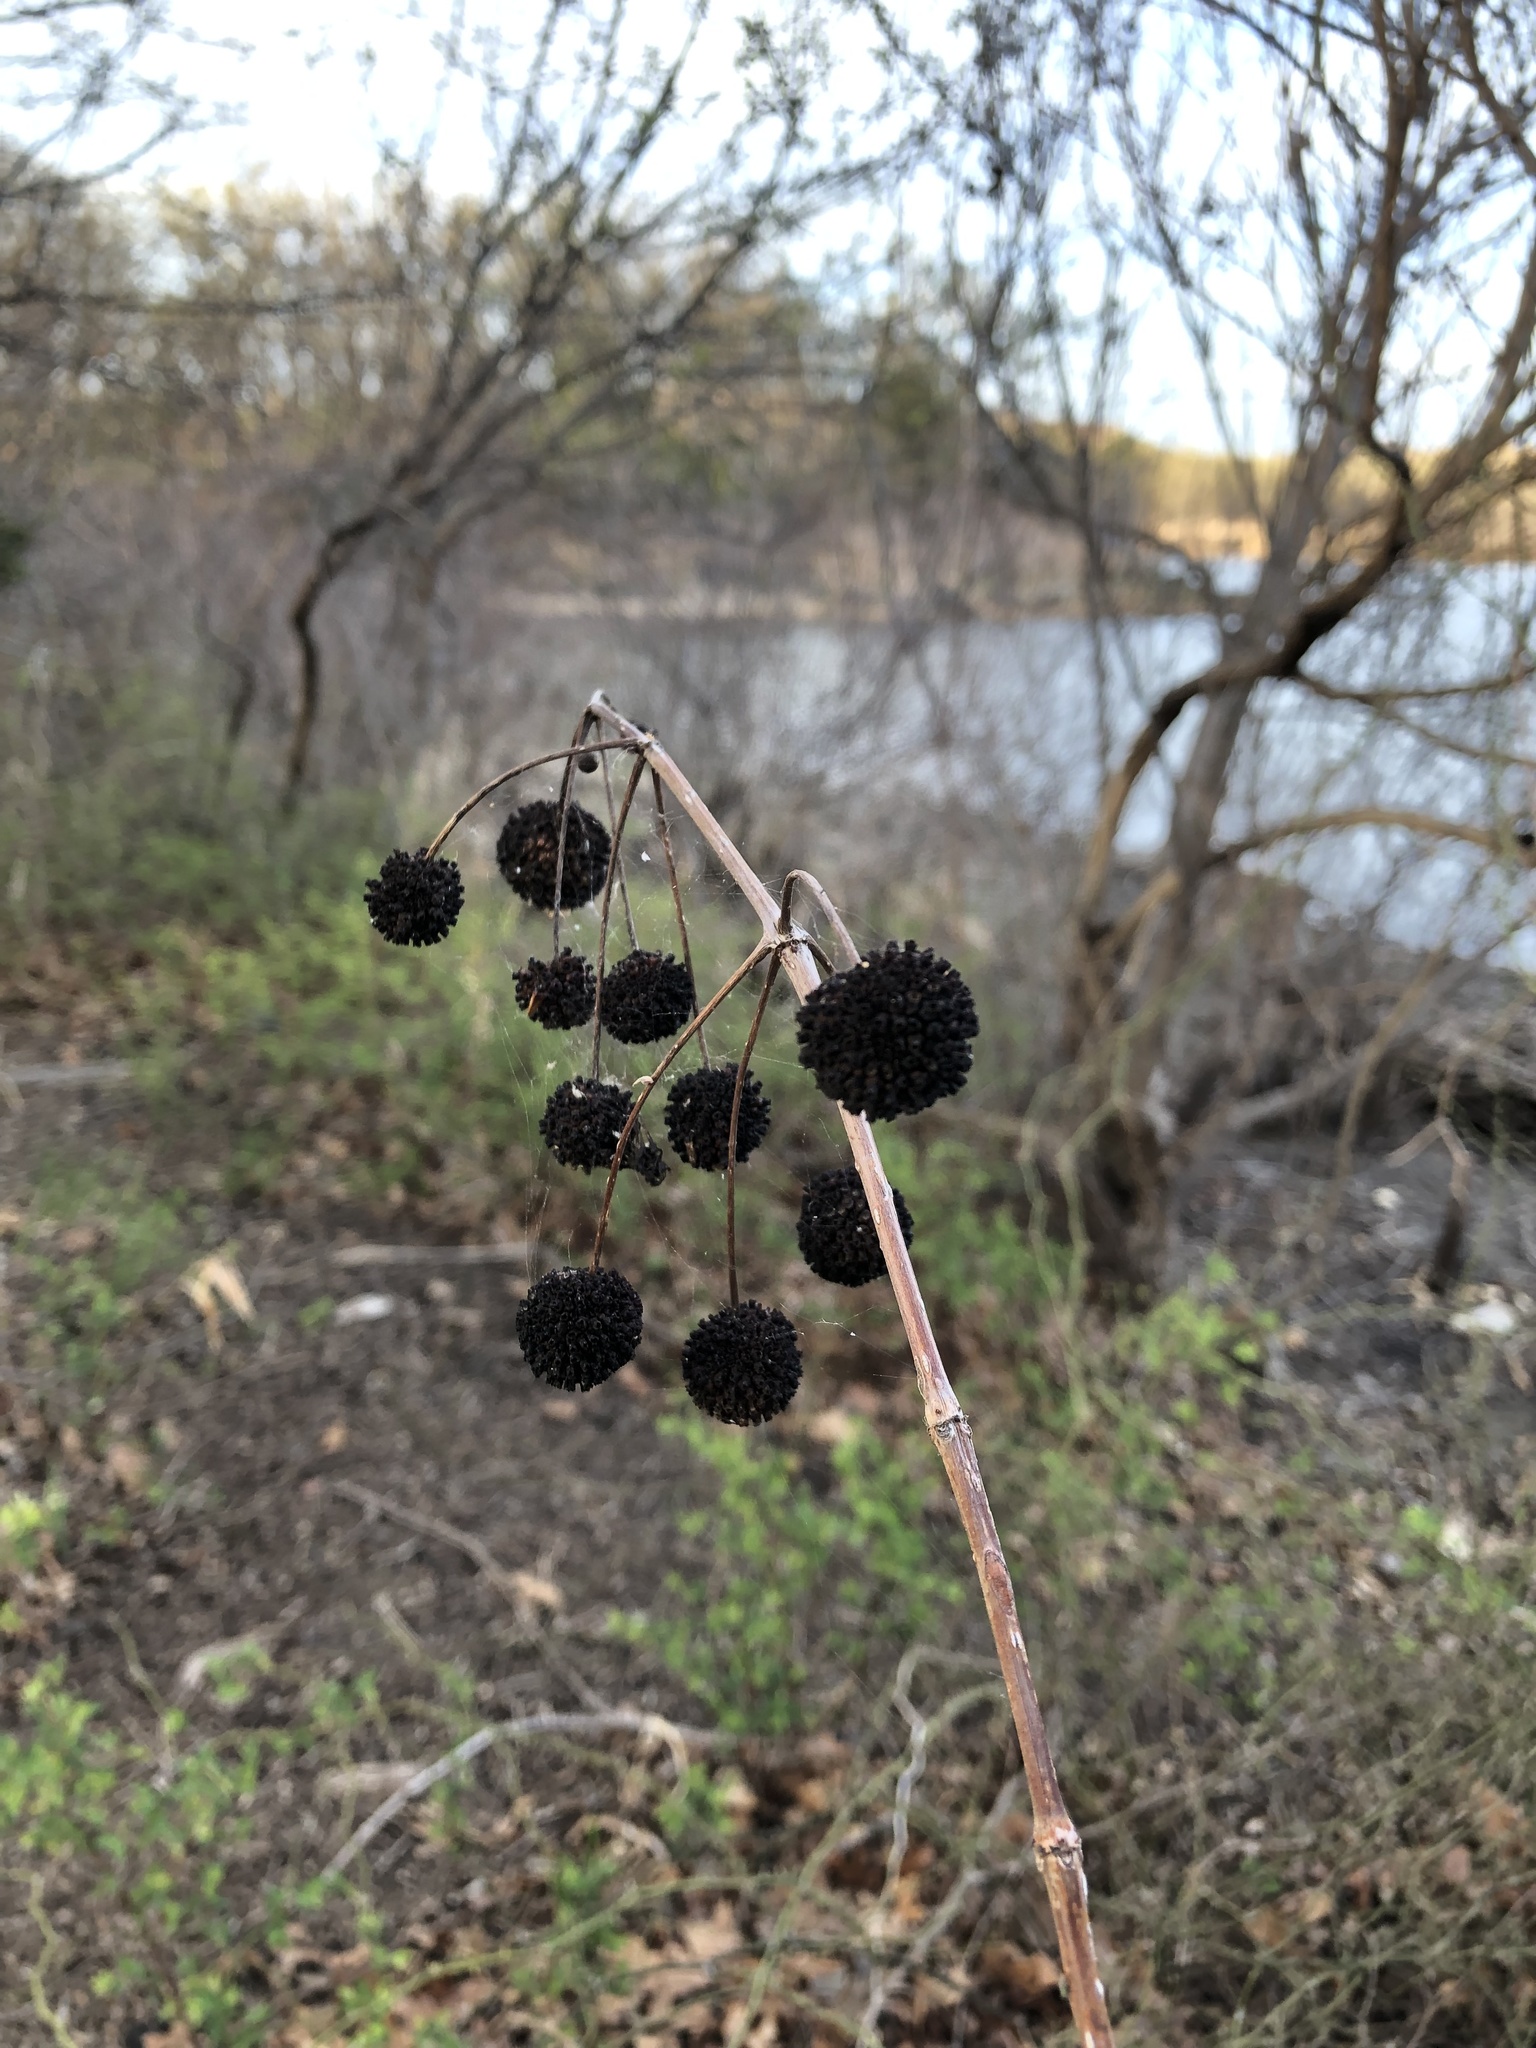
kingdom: Plantae
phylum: Tracheophyta
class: Magnoliopsida
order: Gentianales
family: Rubiaceae
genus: Cephalanthus
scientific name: Cephalanthus occidentalis
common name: Button-willow
